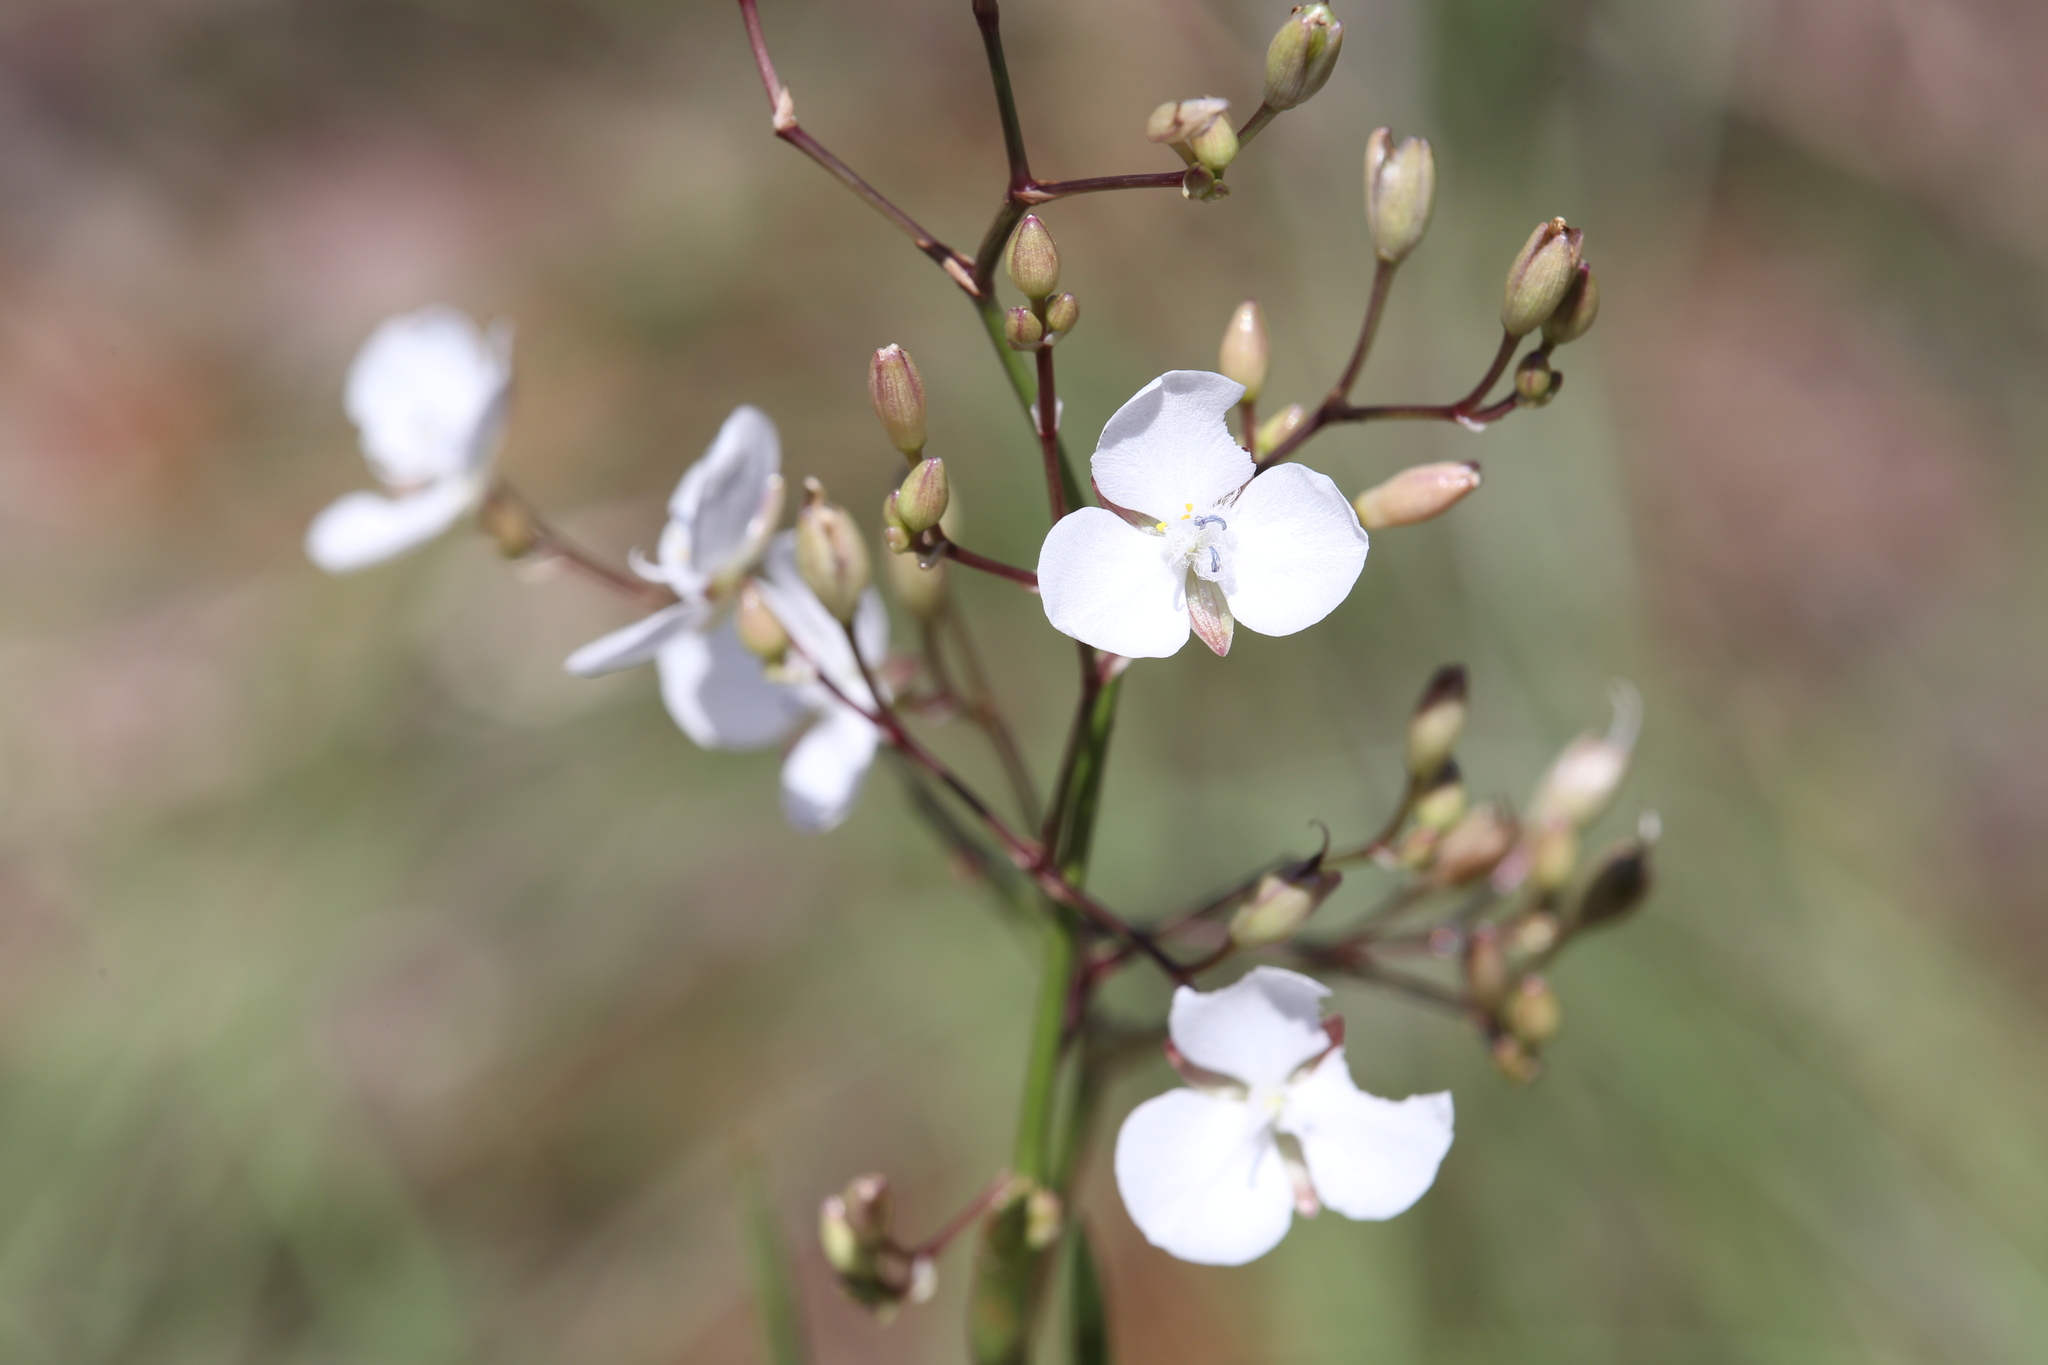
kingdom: Plantae
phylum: Tracheophyta
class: Liliopsida
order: Commelinales
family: Commelinaceae
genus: Murdannia
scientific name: Murdannia graminea
